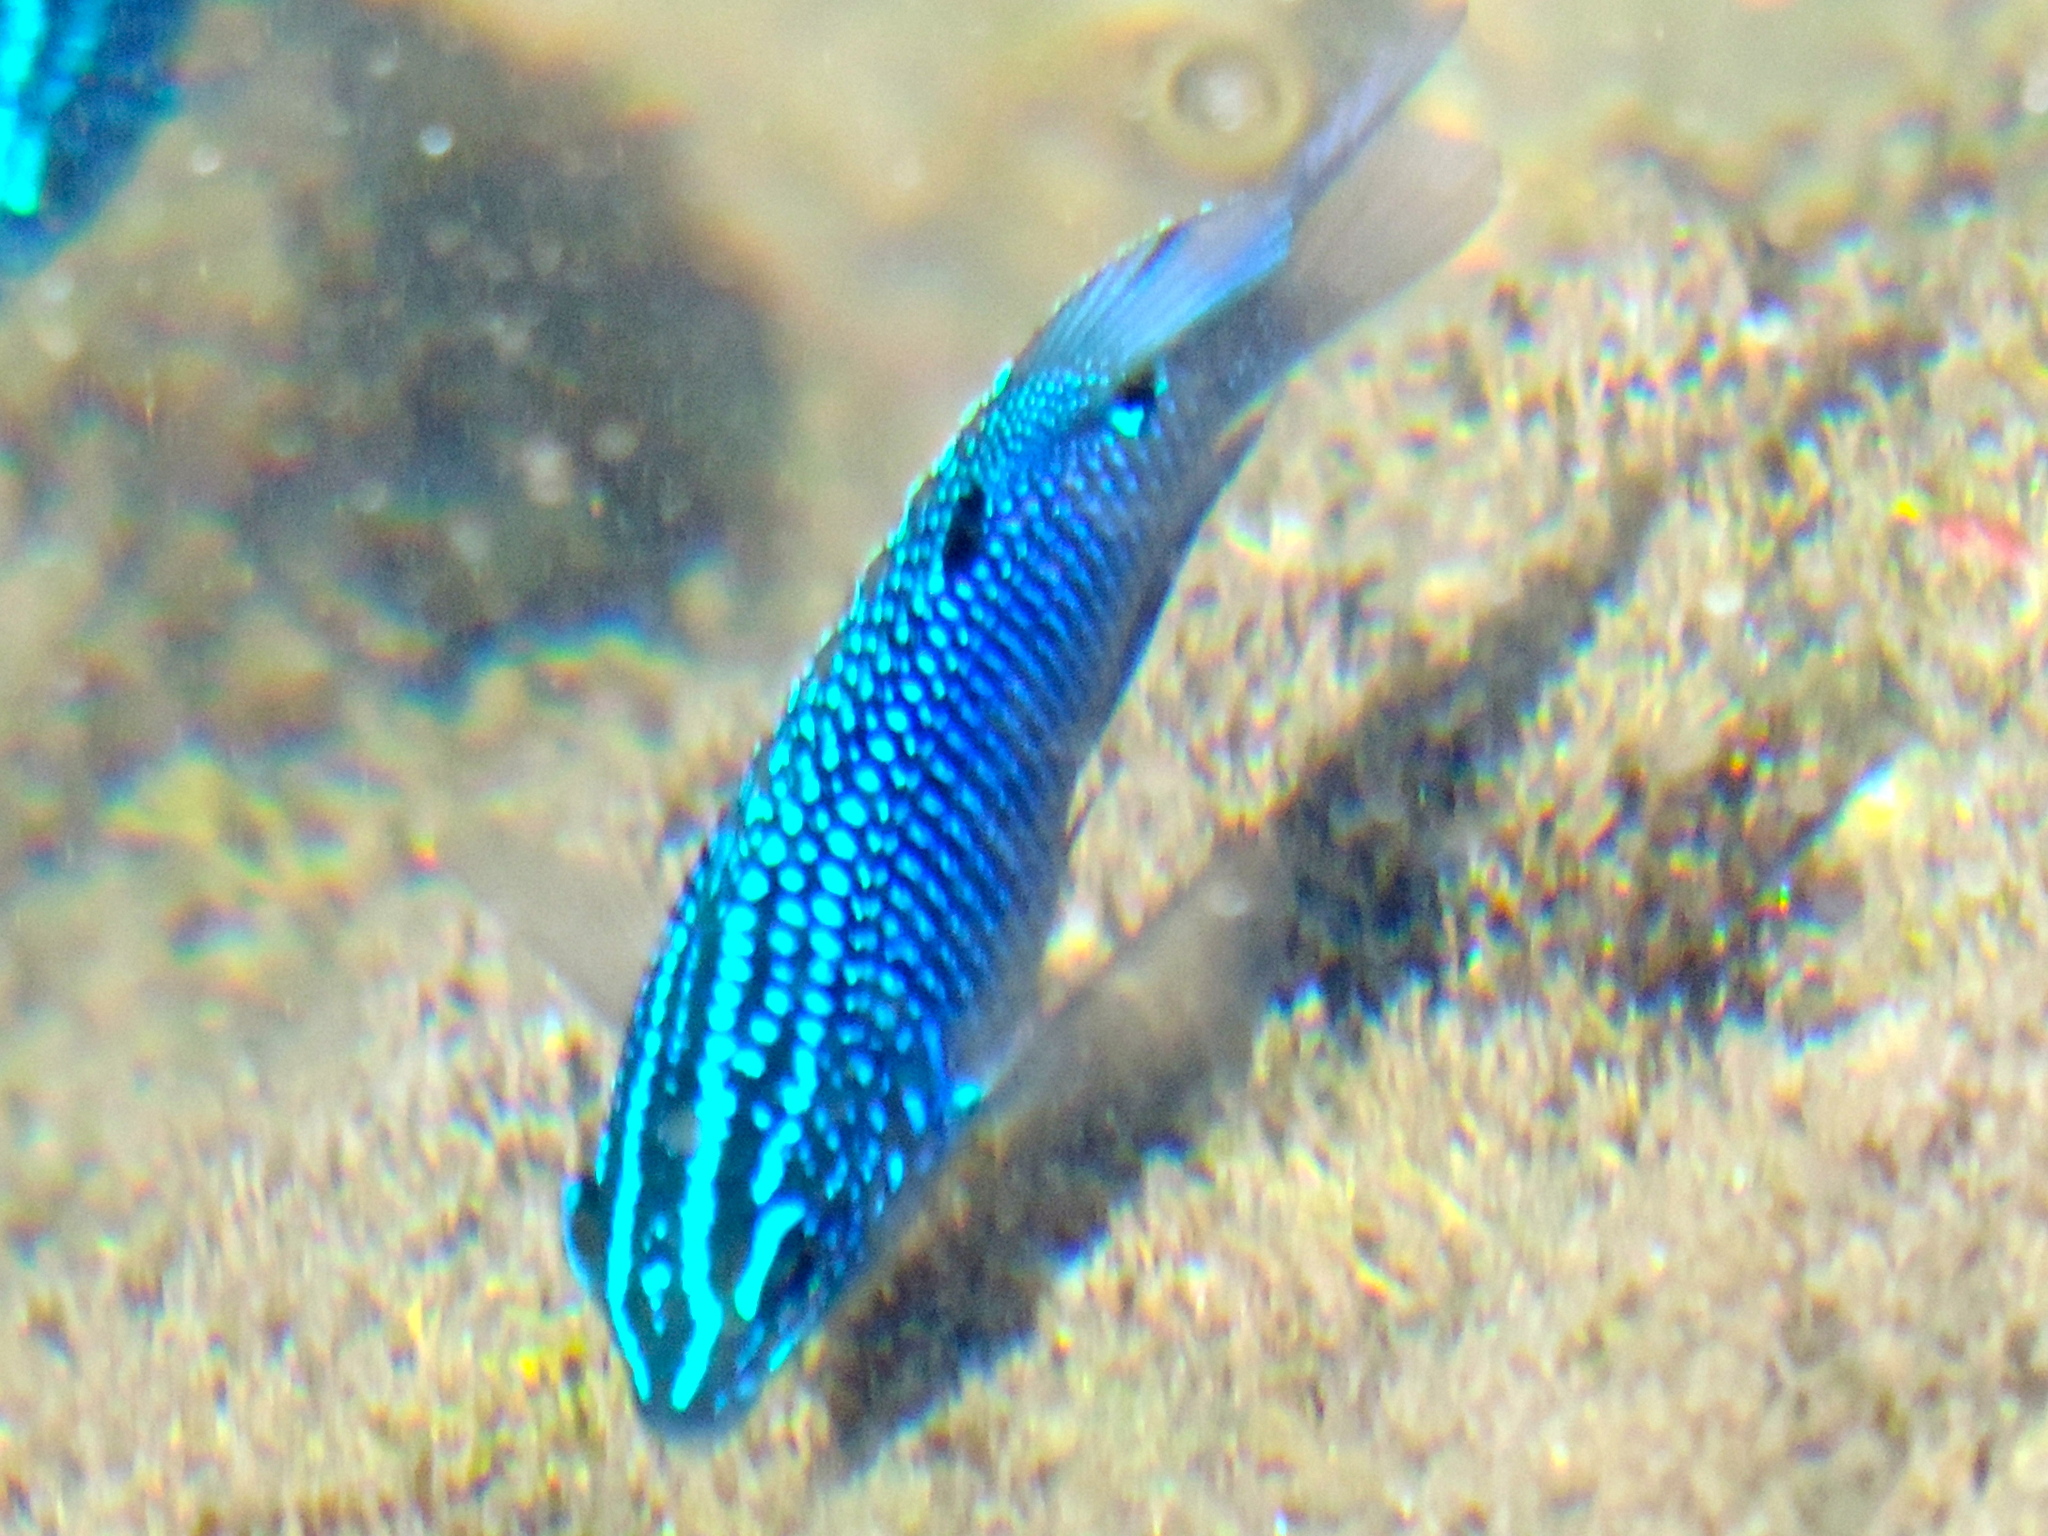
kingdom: Animalia
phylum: Chordata
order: Perciformes
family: Pomacentridae
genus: Stegastes
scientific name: Stegastes rectifraenum
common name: Cortez damselfish
